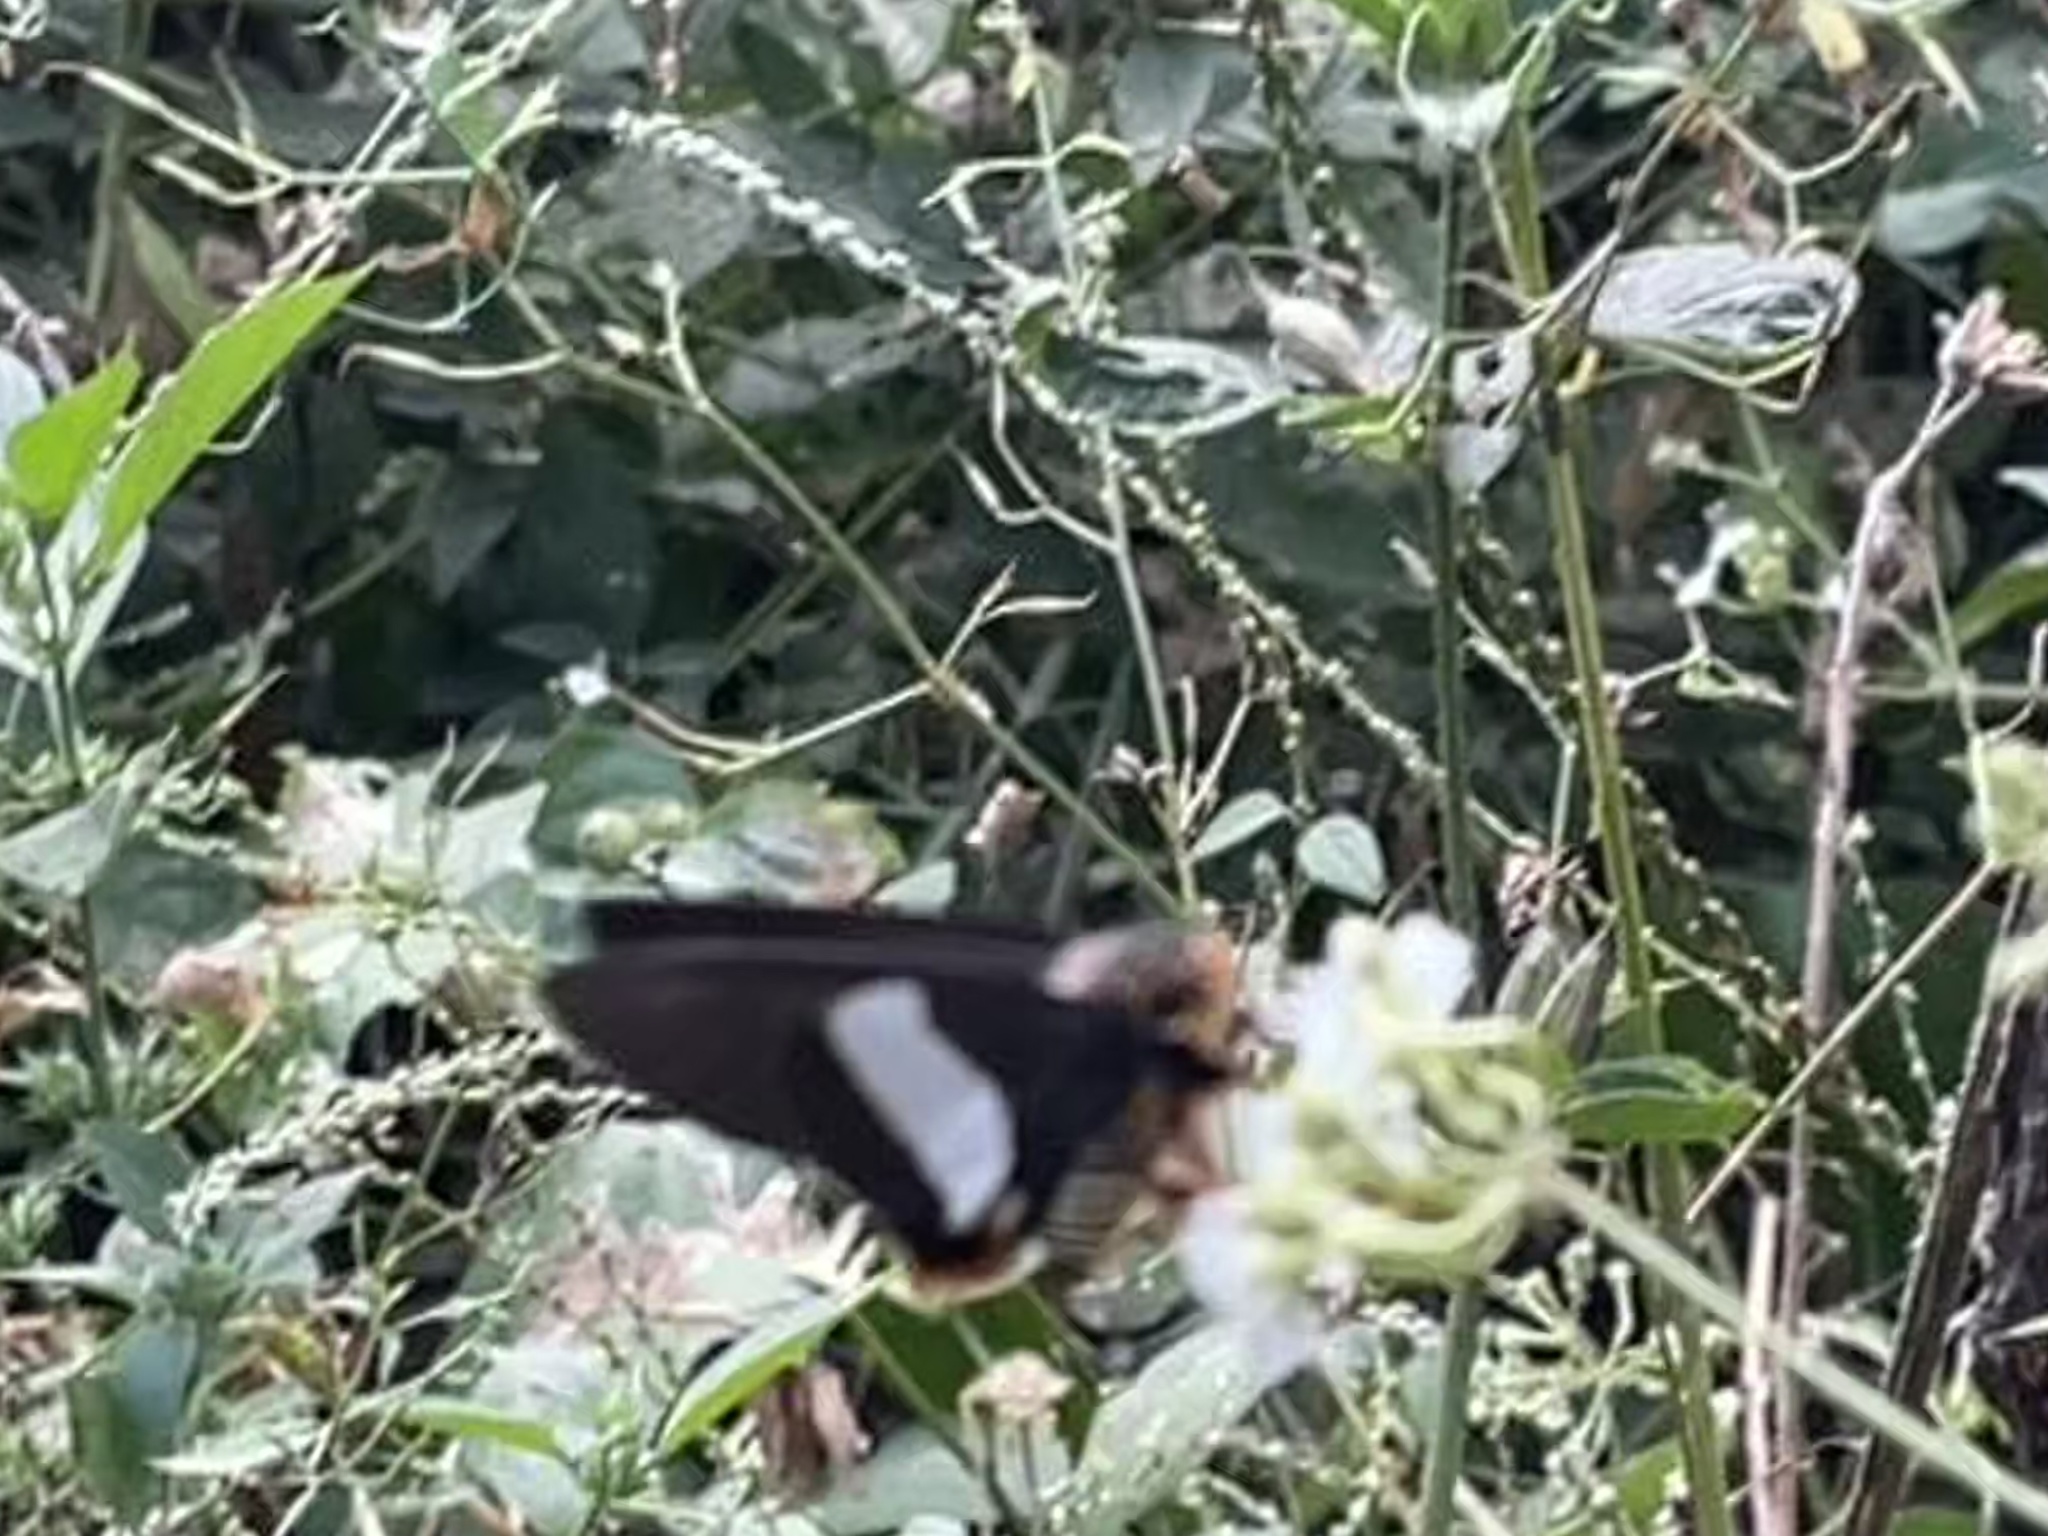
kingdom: Animalia
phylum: Arthropoda
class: Insecta
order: Lepidoptera
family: Hesperiidae
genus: Coeliades
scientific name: Coeliades forestan
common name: Striped policeman
